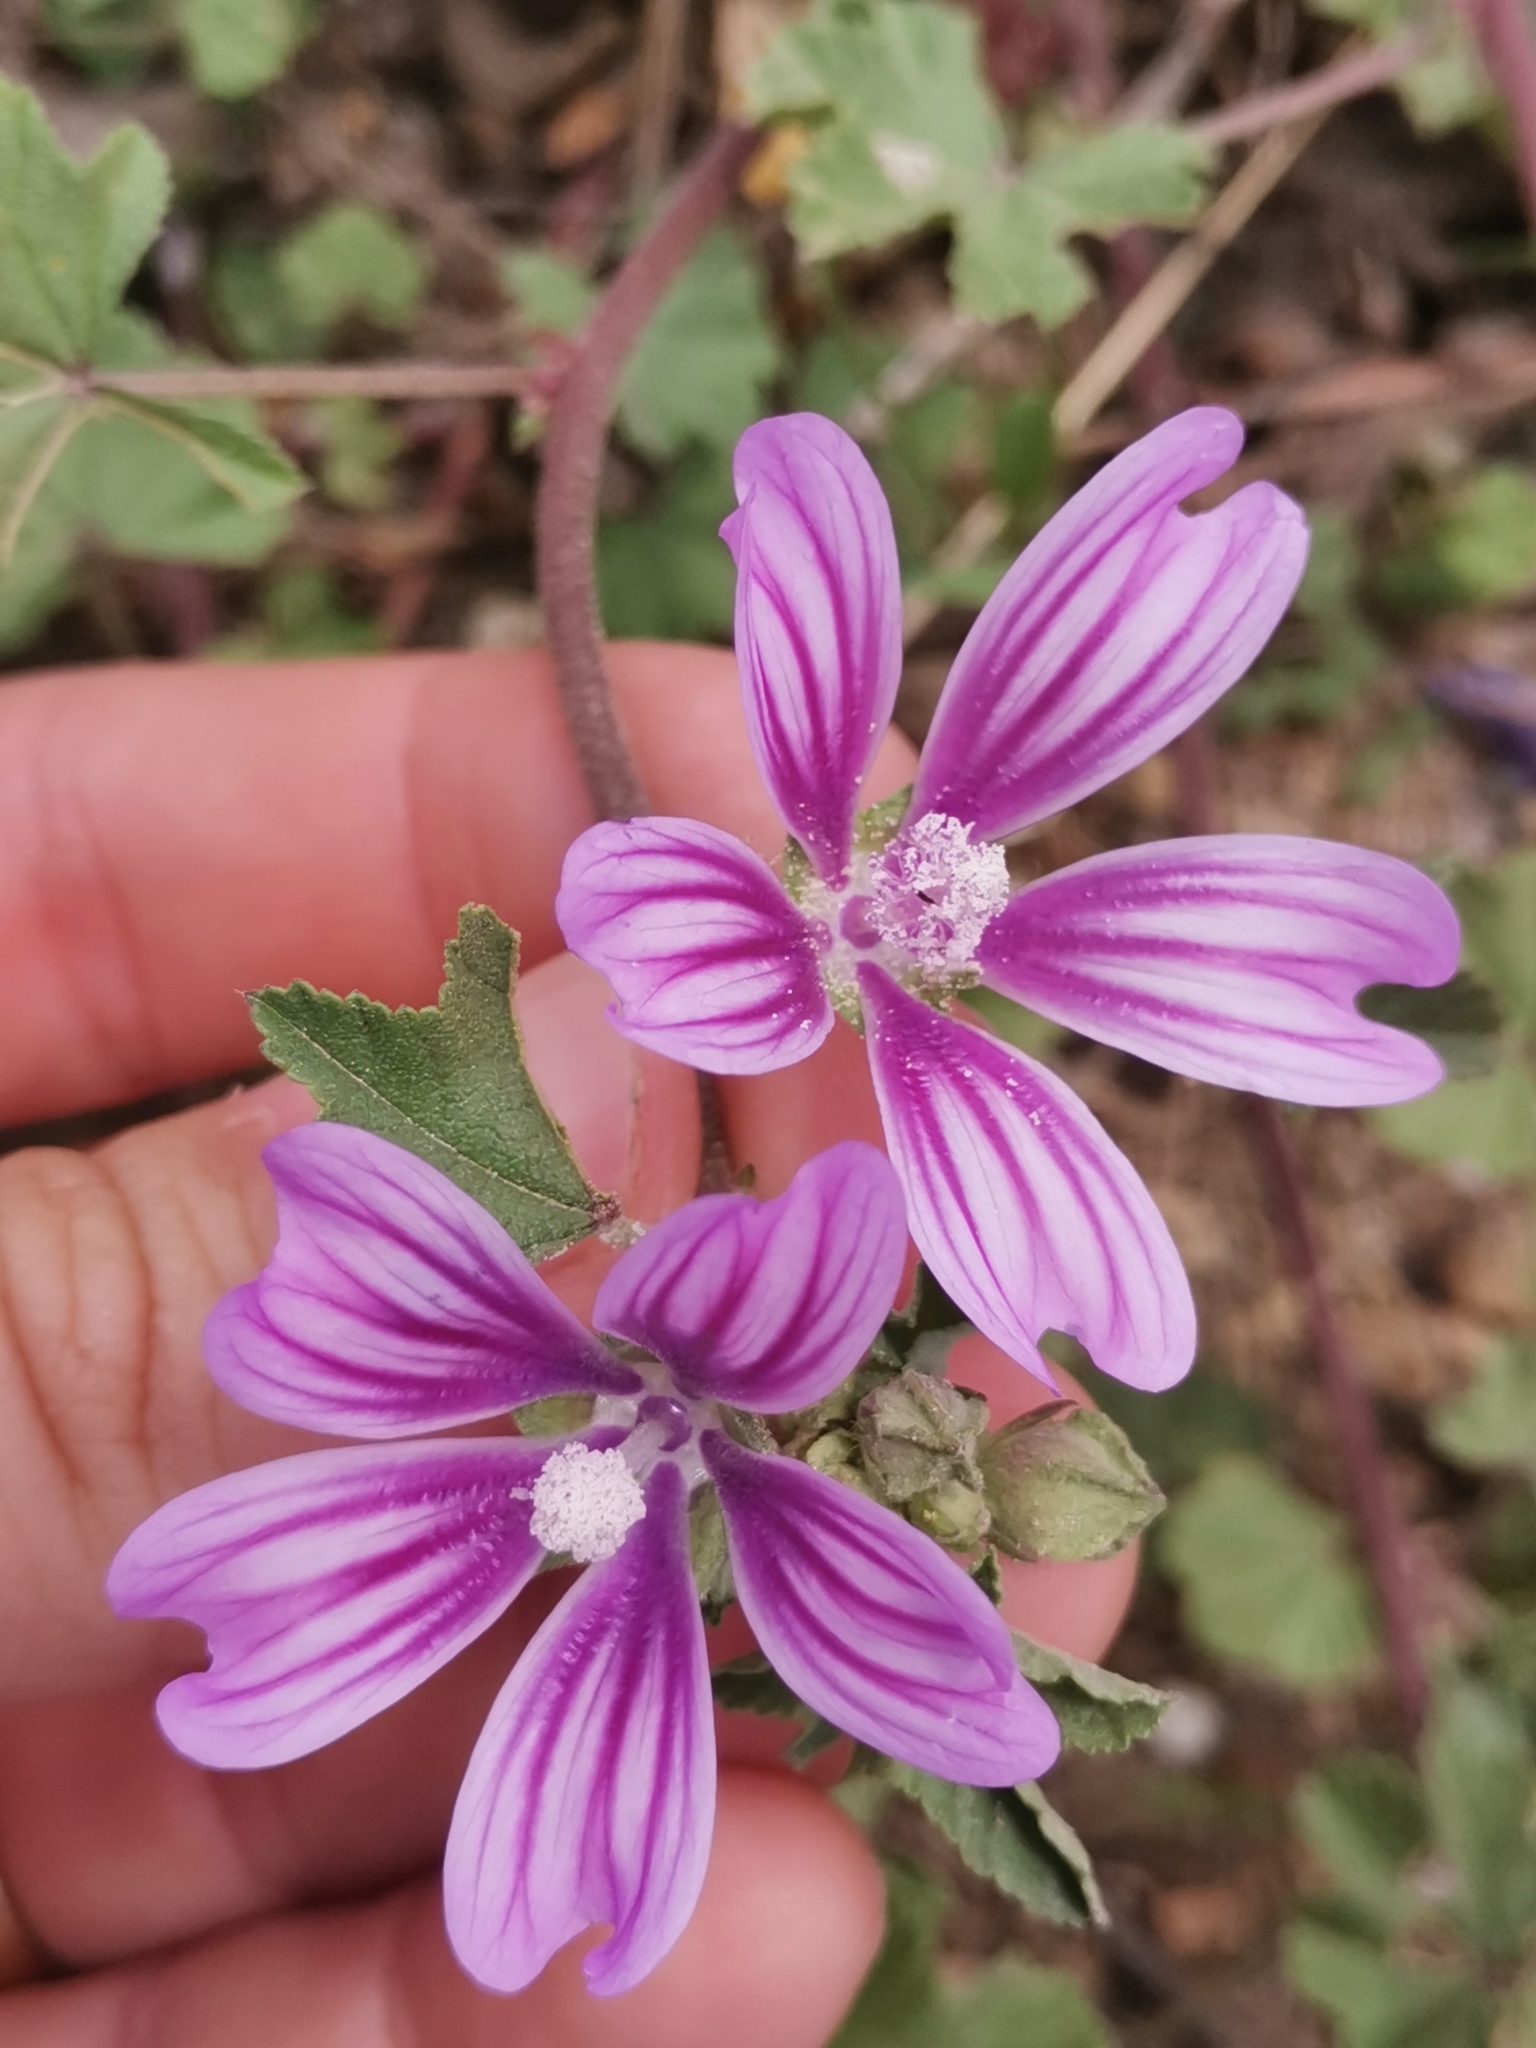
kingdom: Plantae
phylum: Tracheophyta
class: Magnoliopsida
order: Malvales
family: Malvaceae
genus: Malva
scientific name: Malva sylvestris
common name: Common mallow
